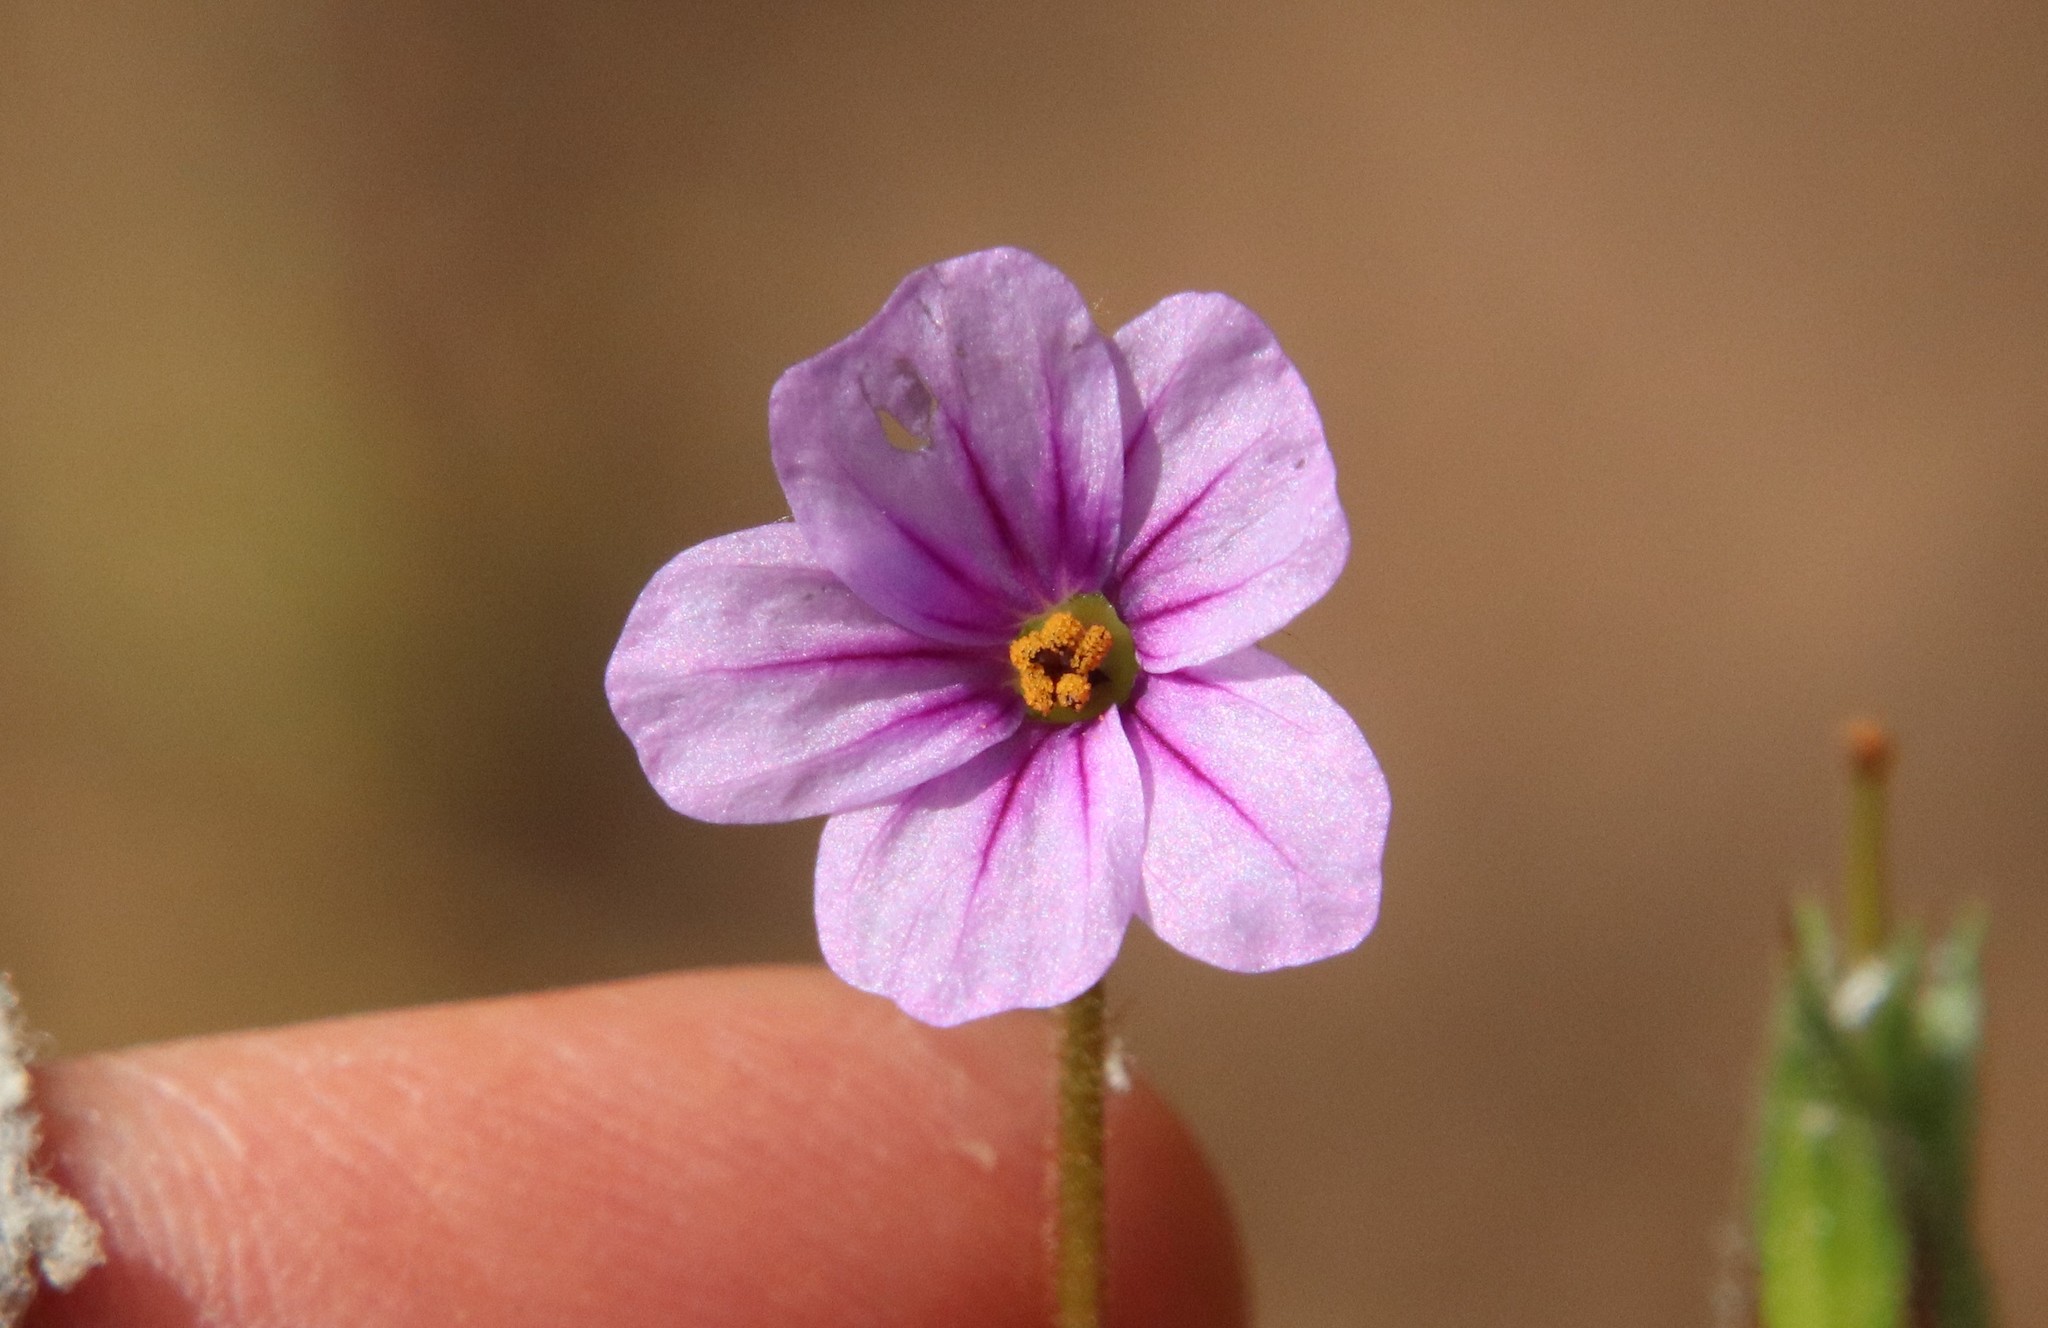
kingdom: Plantae
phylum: Tracheophyta
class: Magnoliopsida
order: Geraniales
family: Geraniaceae
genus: Erodium
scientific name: Erodium botrys
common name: Mediterranean stork's-bill
